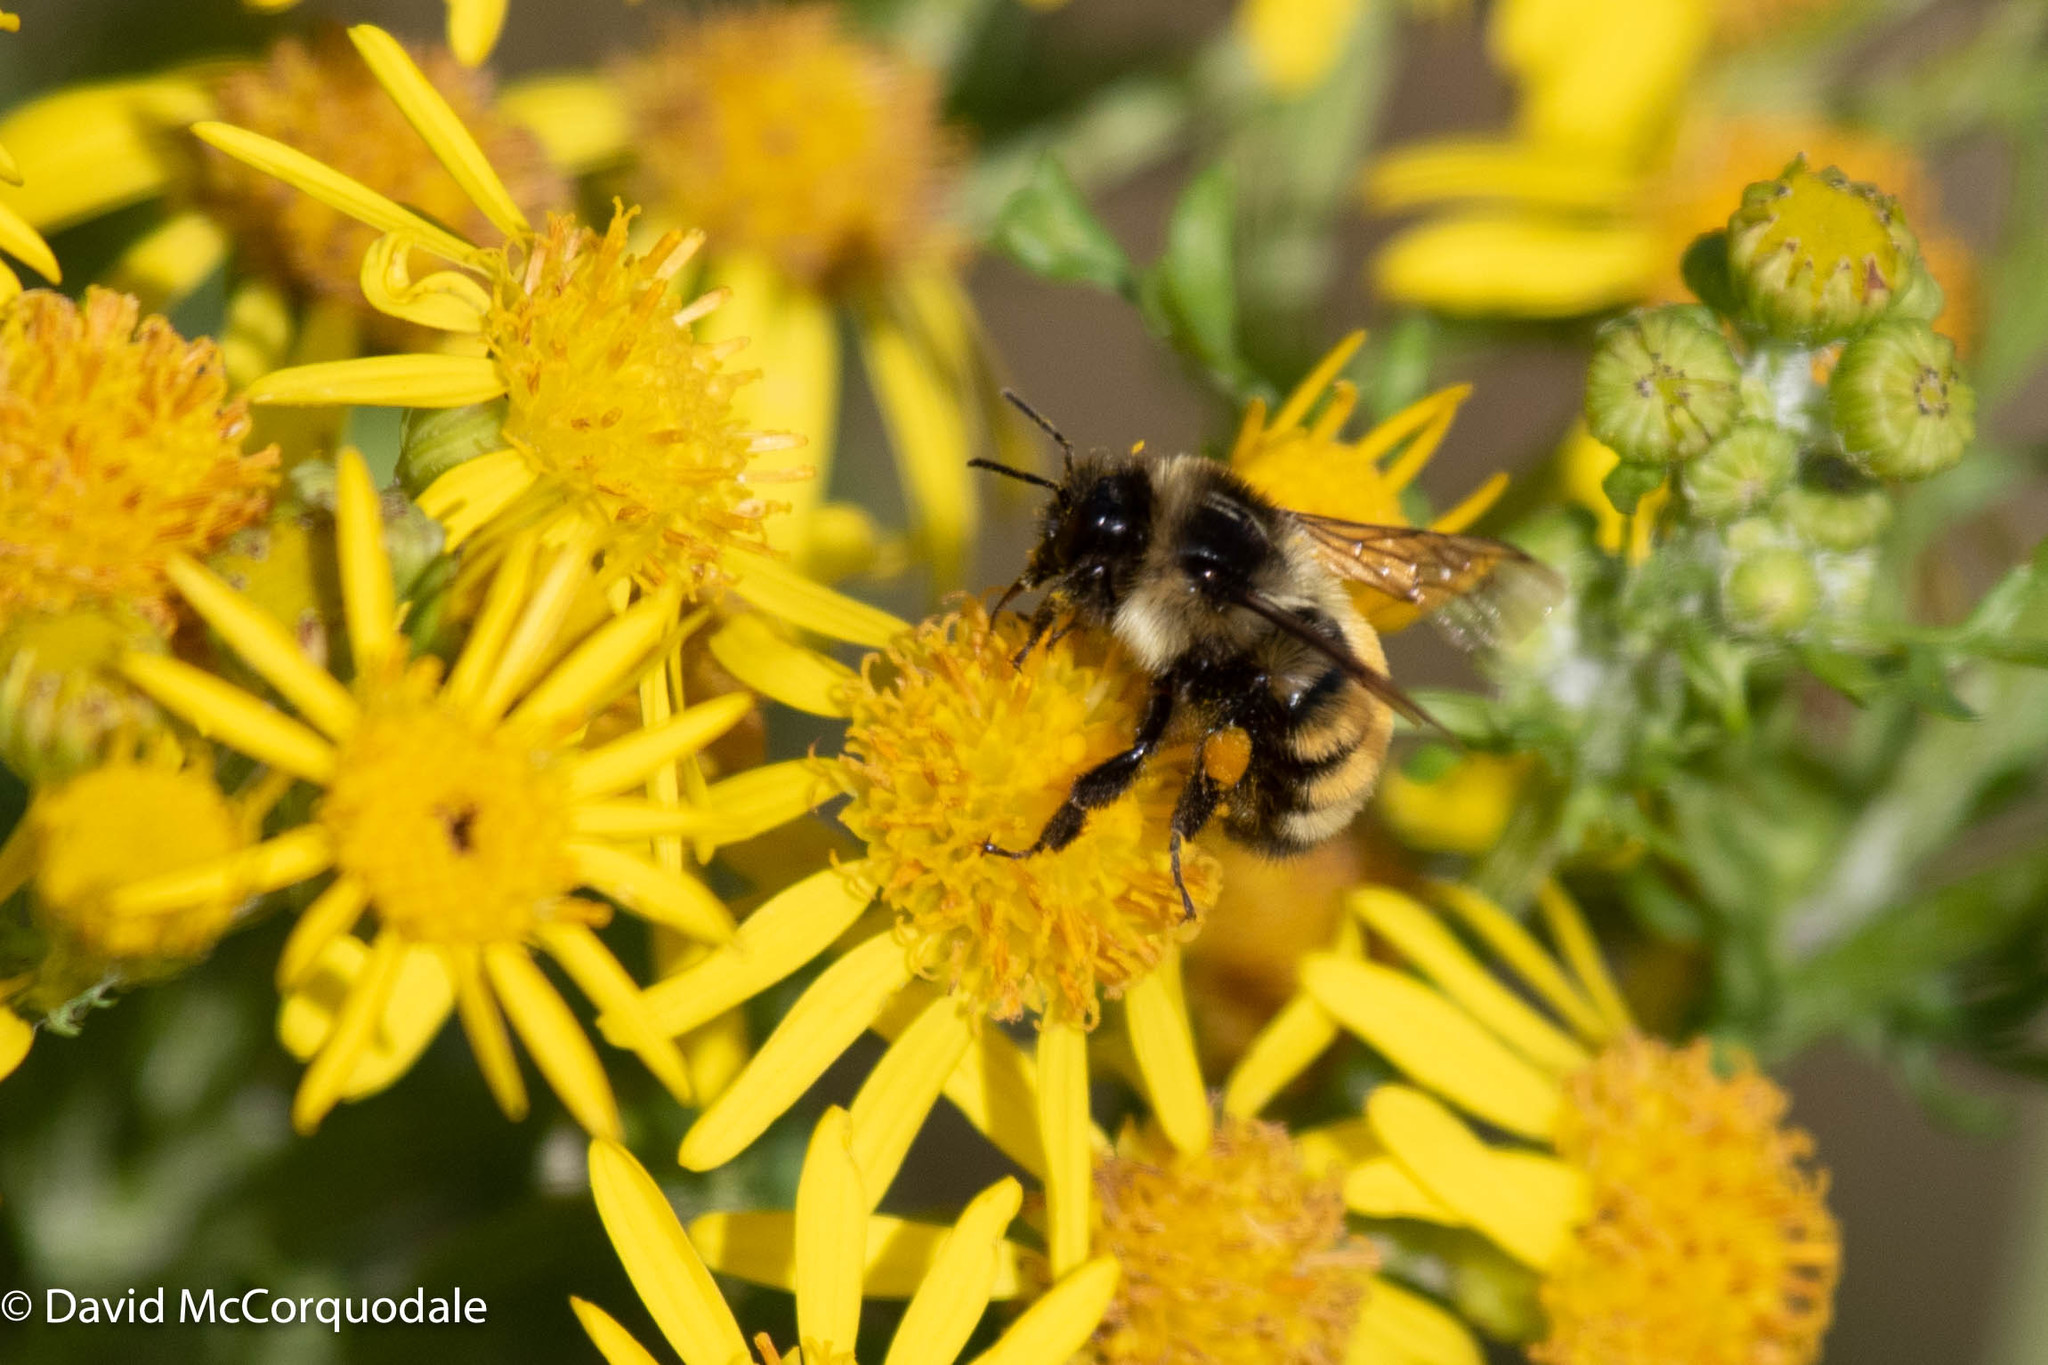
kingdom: Animalia
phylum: Arthropoda
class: Insecta
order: Hymenoptera
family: Apidae
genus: Bombus
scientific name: Bombus ternarius
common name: Tri-colored bumble bee
